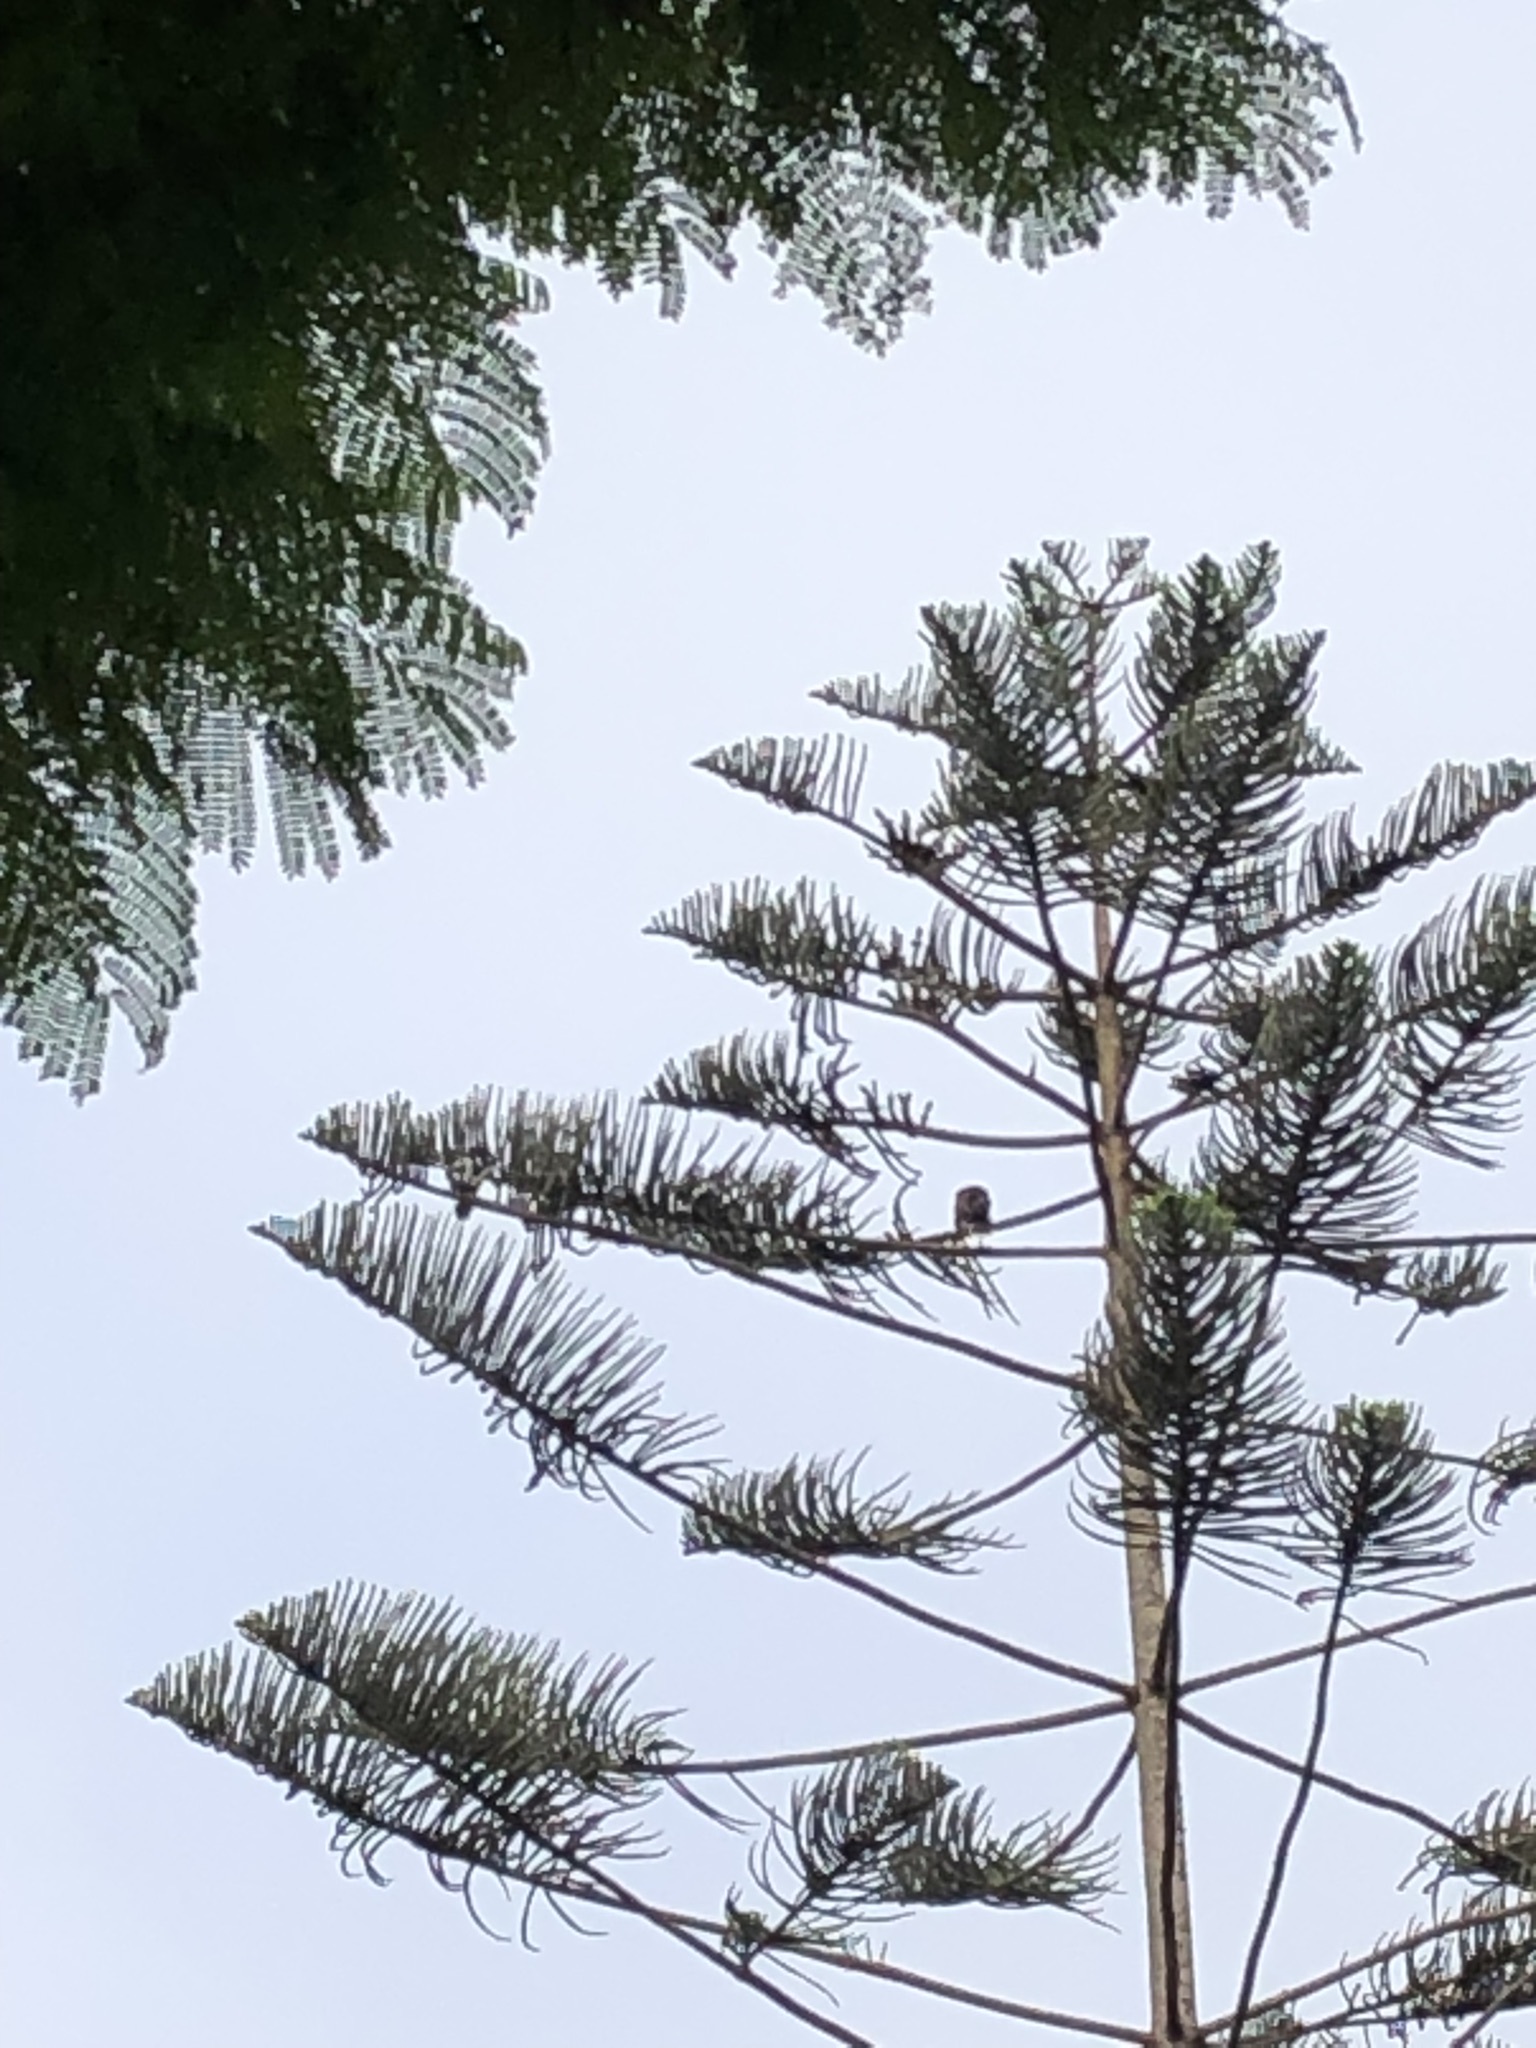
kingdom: Animalia
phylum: Chordata
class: Aves
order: Accipitriformes
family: Accipitridae
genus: Parabuteo
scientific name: Parabuteo unicinctus
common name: Harris's hawk
